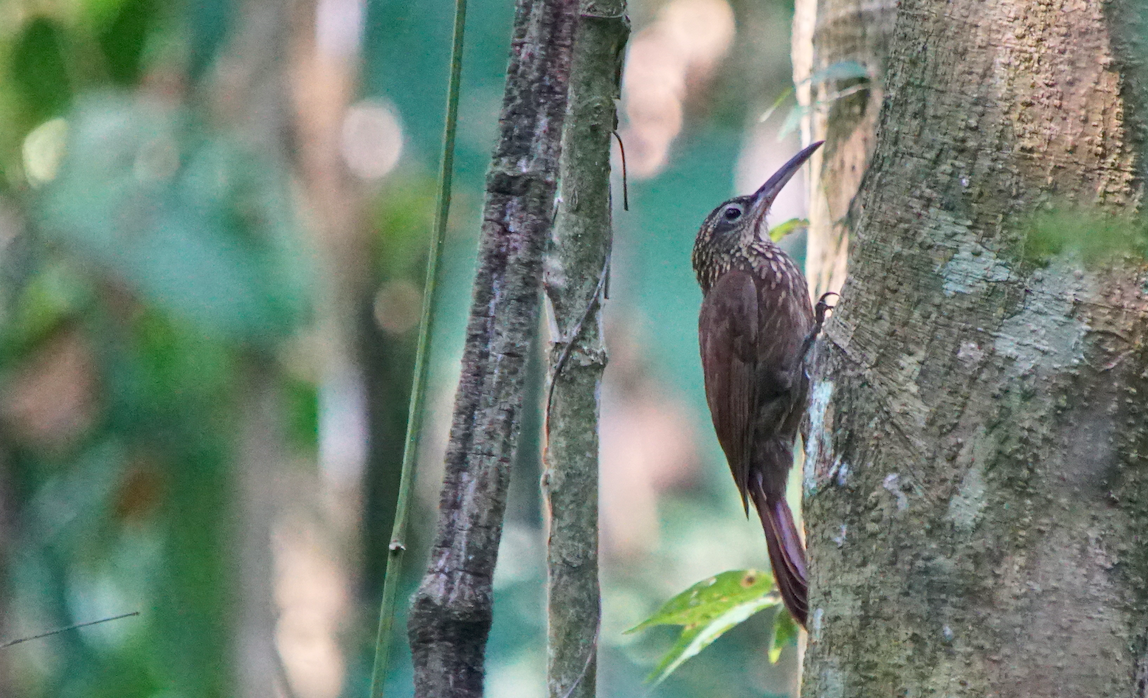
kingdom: Animalia
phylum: Chordata
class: Aves
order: Passeriformes
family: Furnariidae
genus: Xiphorhynchus
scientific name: Xiphorhynchus susurrans
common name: Cocoa woodcreeper
